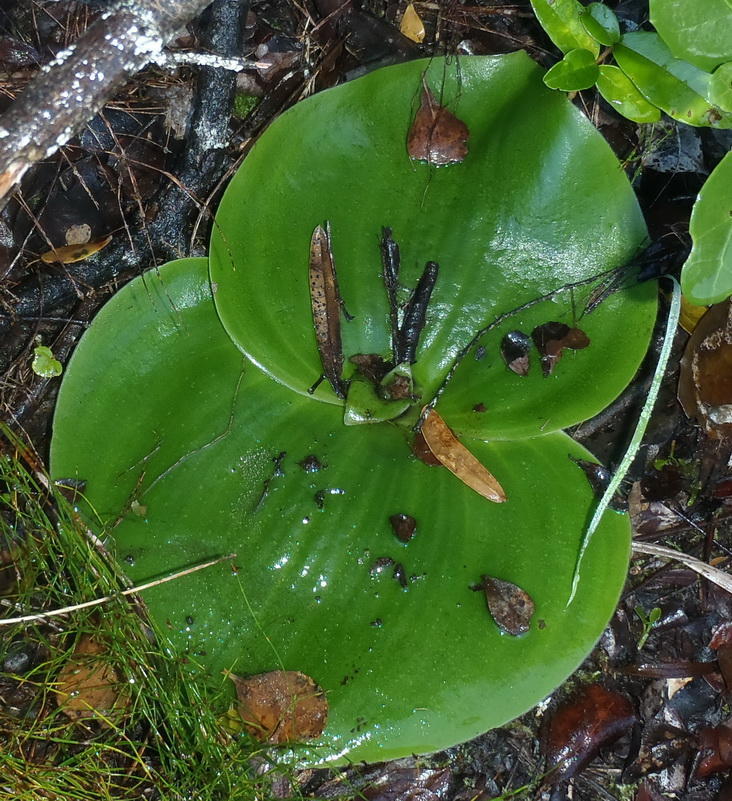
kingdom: Plantae
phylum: Tracheophyta
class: Liliopsida
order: Asparagales
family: Orchidaceae
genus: Satyrium
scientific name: Satyrium princeps
